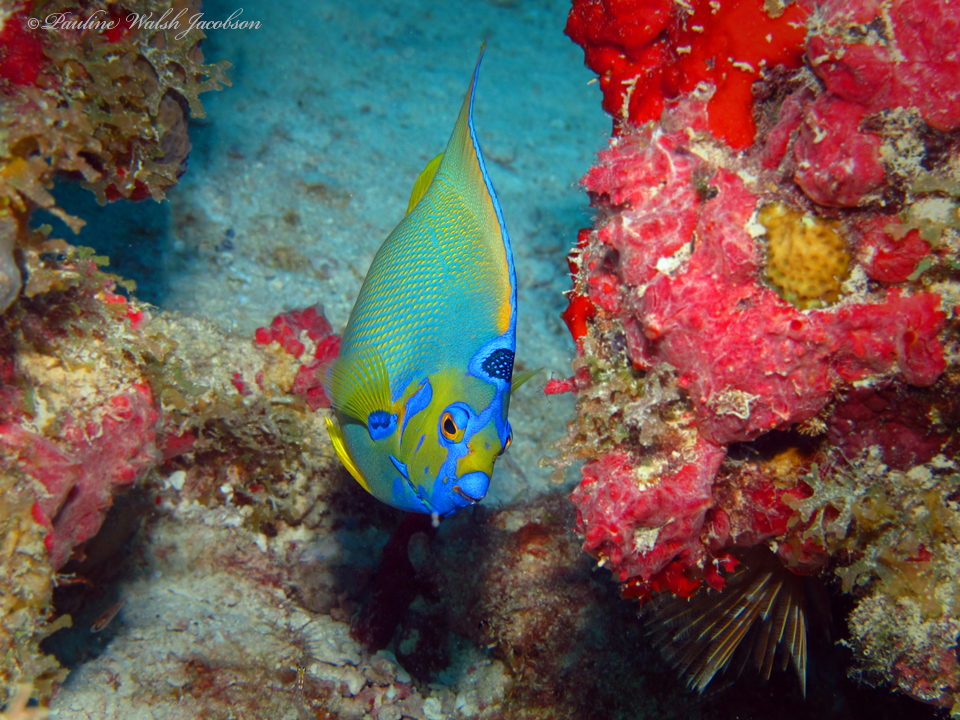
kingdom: Animalia
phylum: Chordata
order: Perciformes
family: Pomacanthidae
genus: Holacanthus
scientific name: Holacanthus ciliaris
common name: Queen angelfish
